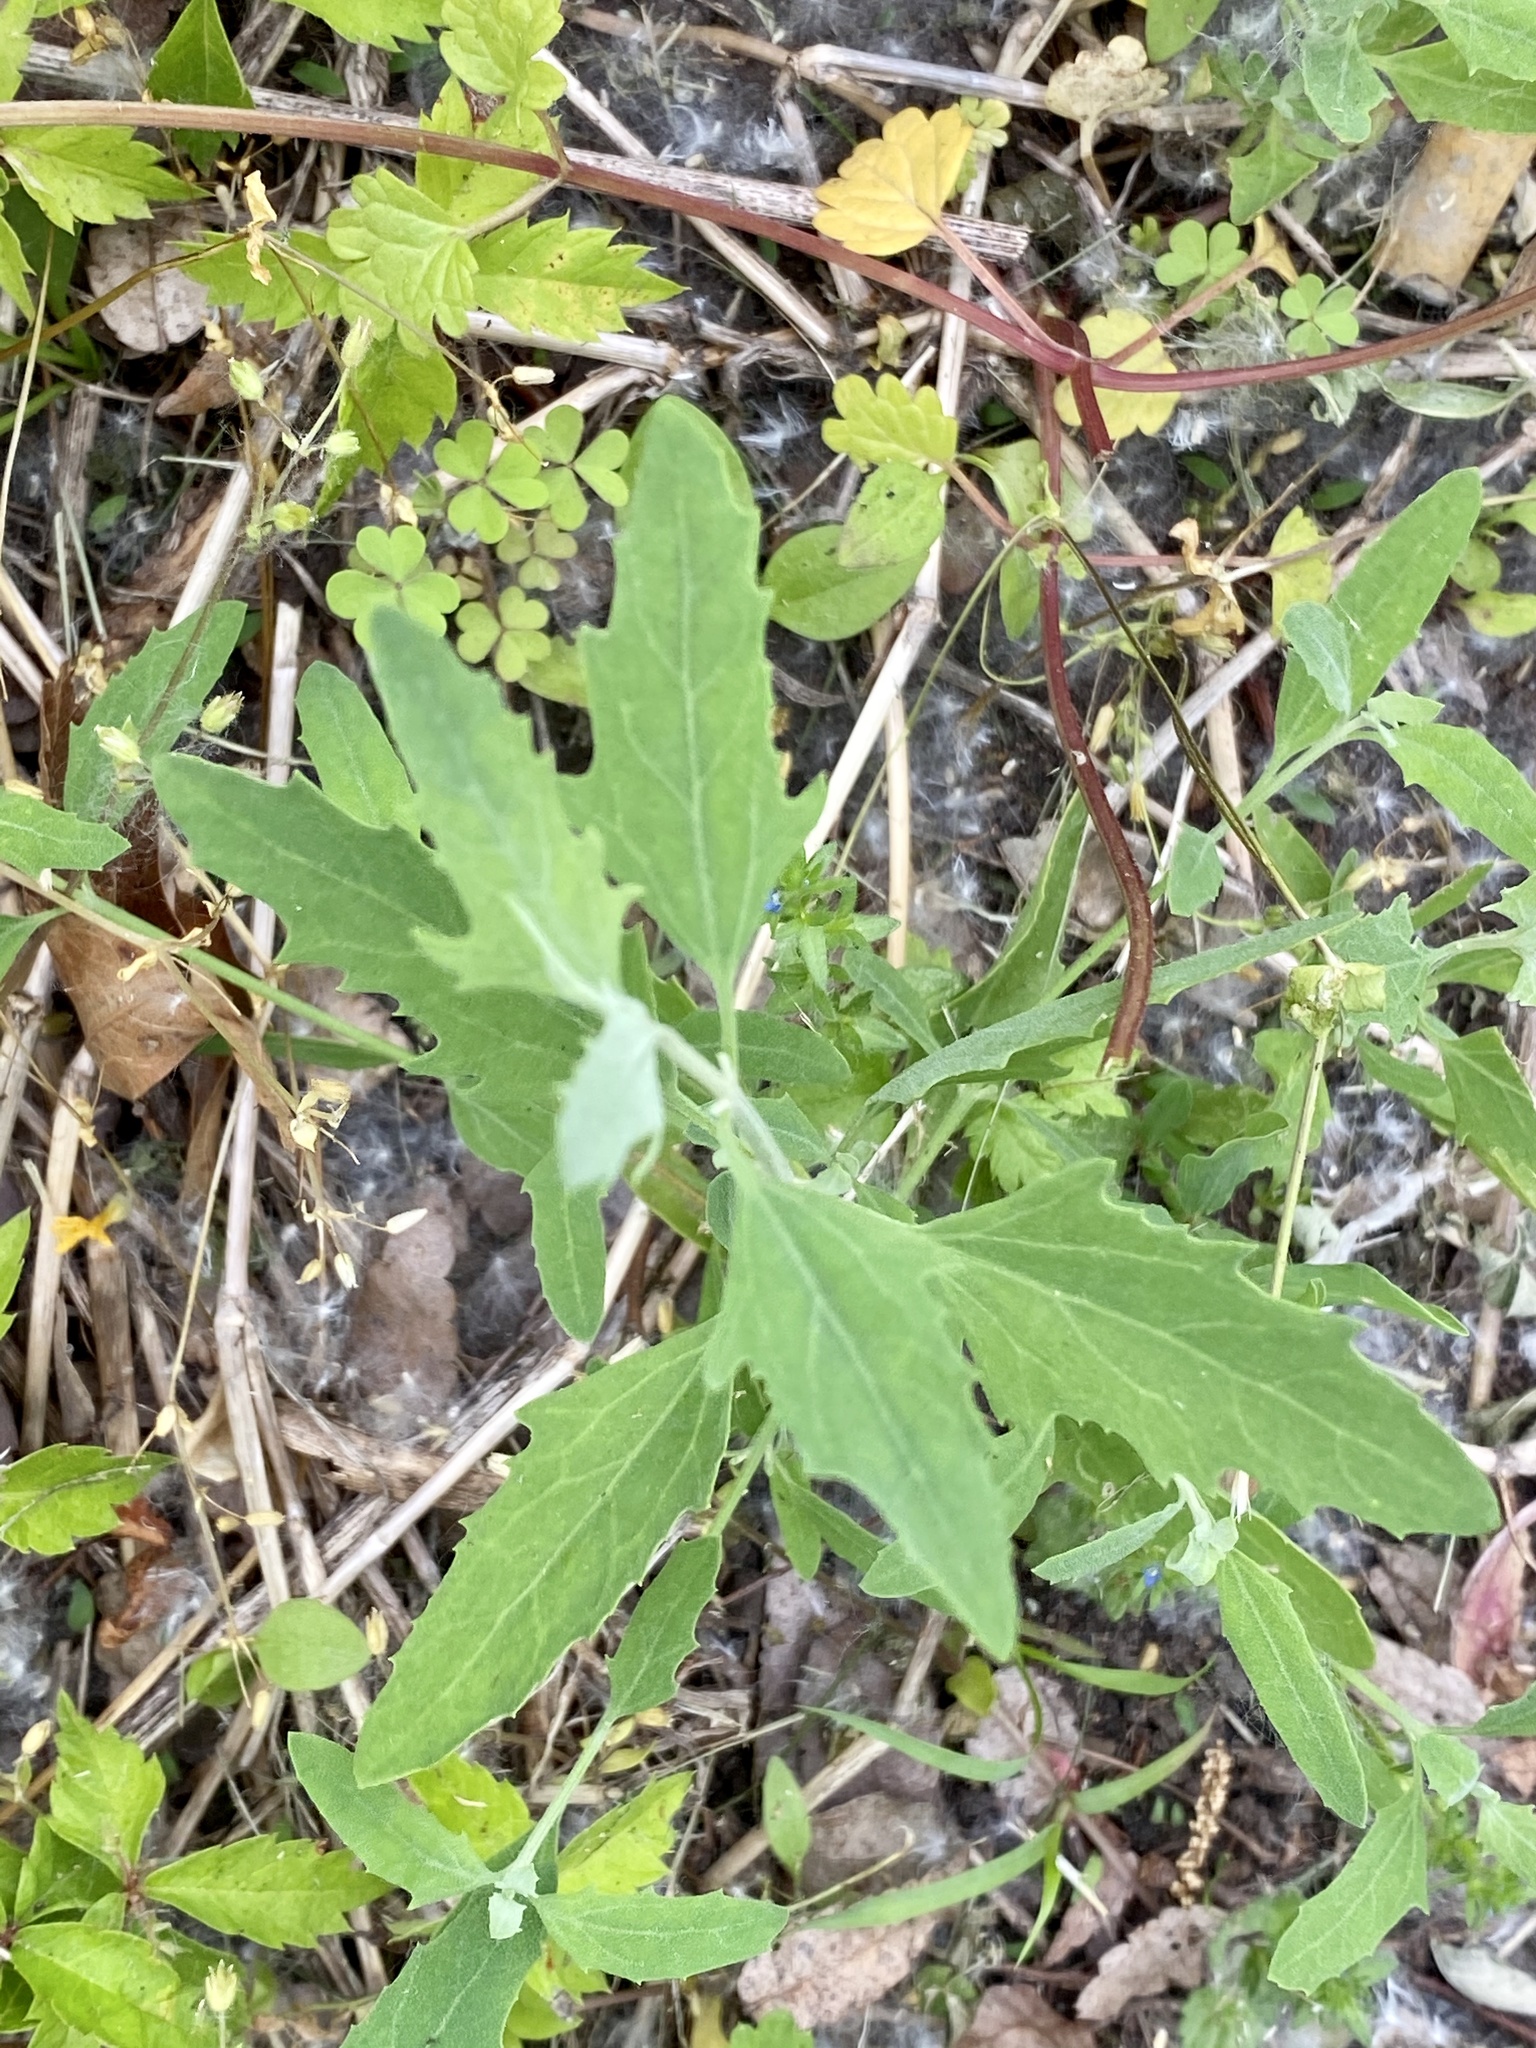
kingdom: Plantae
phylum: Tracheophyta
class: Magnoliopsida
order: Caryophyllales
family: Amaranthaceae
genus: Chenopodium
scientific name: Chenopodium album
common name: Fat-hen
